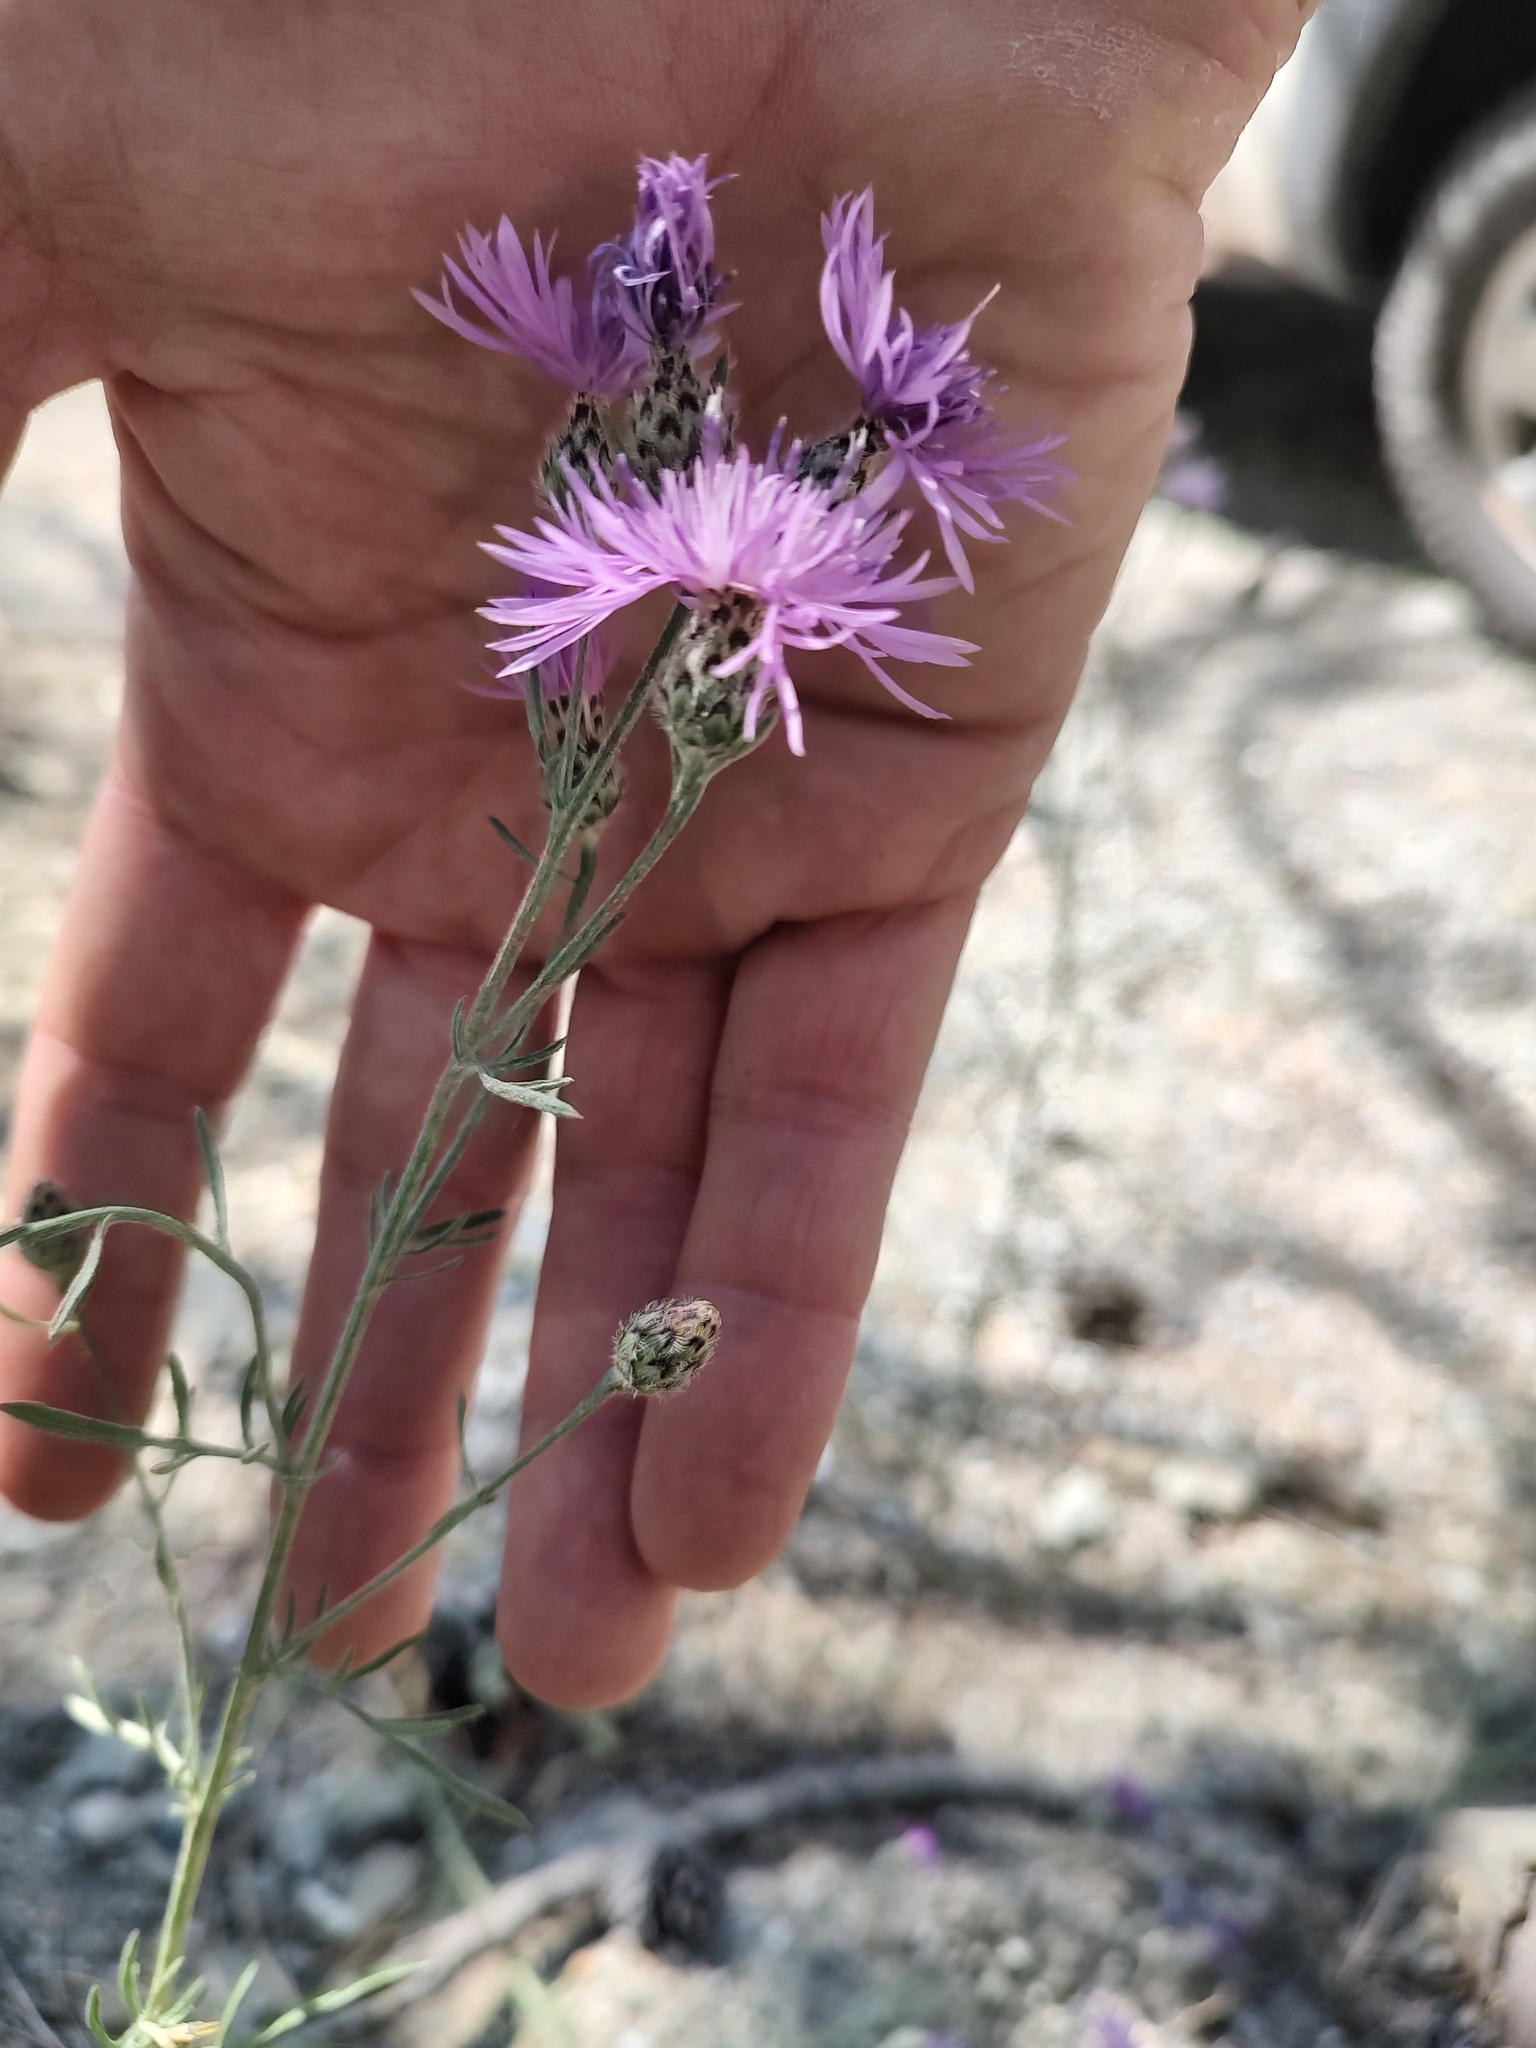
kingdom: Plantae
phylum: Tracheophyta
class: Magnoliopsida
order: Asterales
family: Asteraceae
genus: Centaurea
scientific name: Centaurea stoebe
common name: Spotted knapweed
